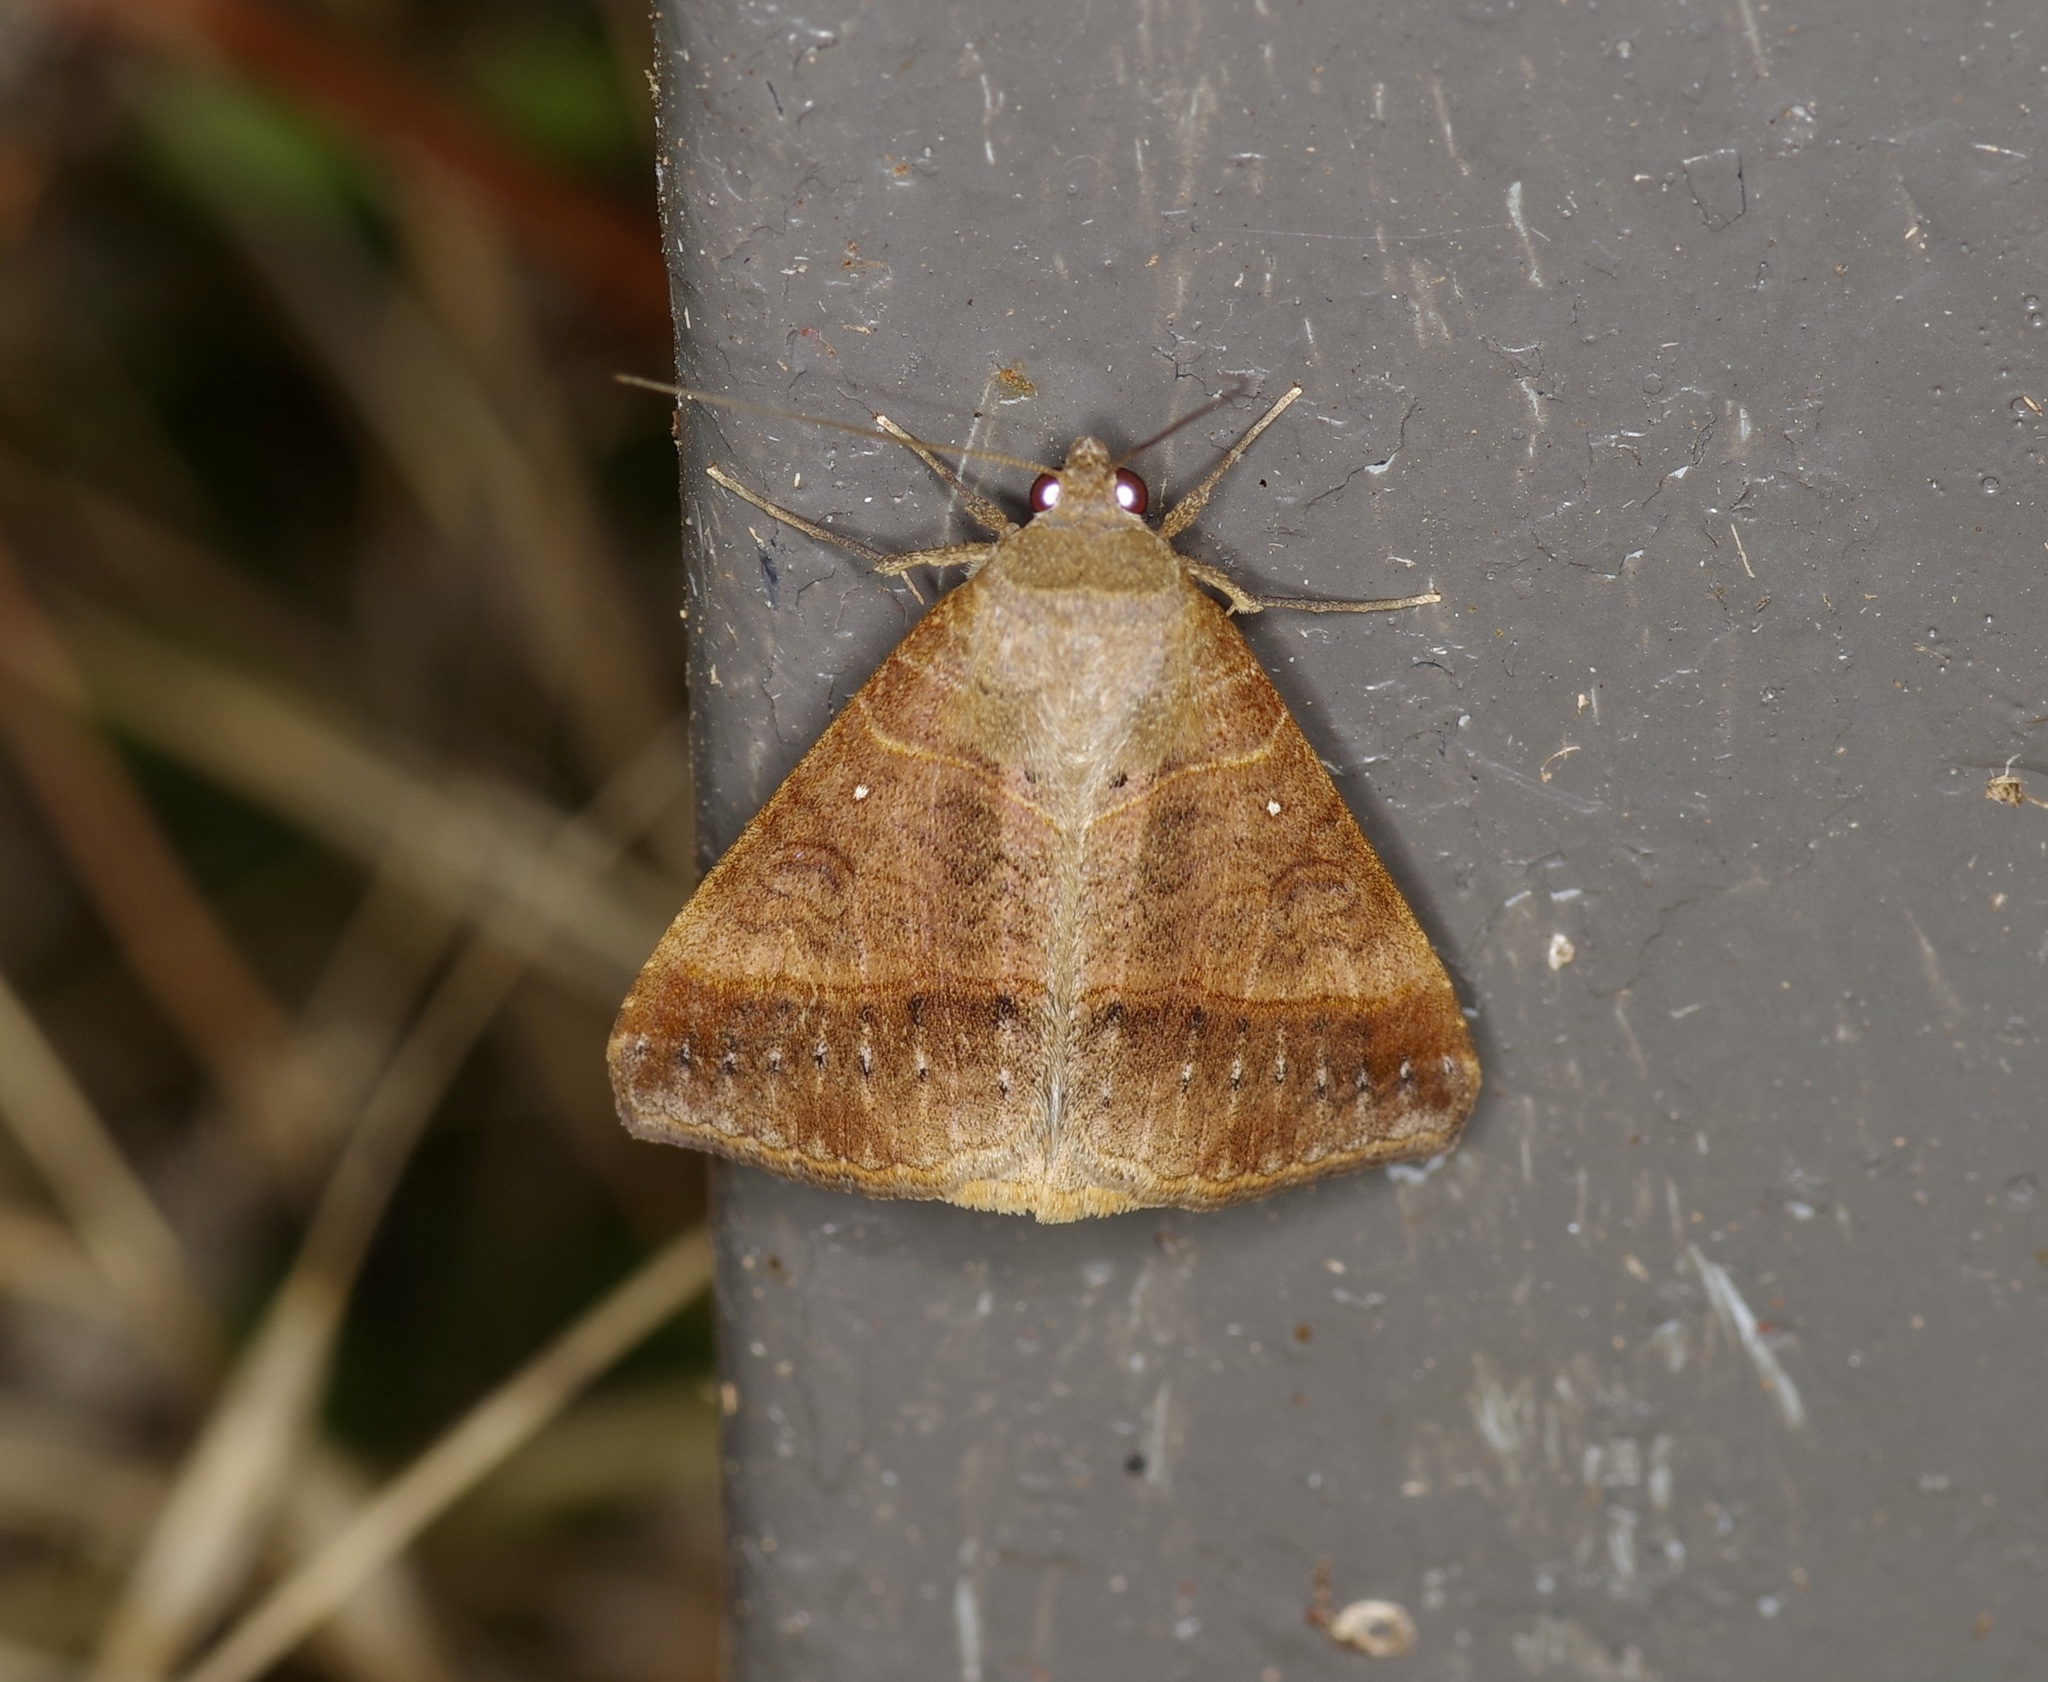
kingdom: Animalia
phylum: Arthropoda
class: Insecta
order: Lepidoptera
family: Erebidae
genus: Mocis
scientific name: Mocis latipes
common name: Striped grass looper
